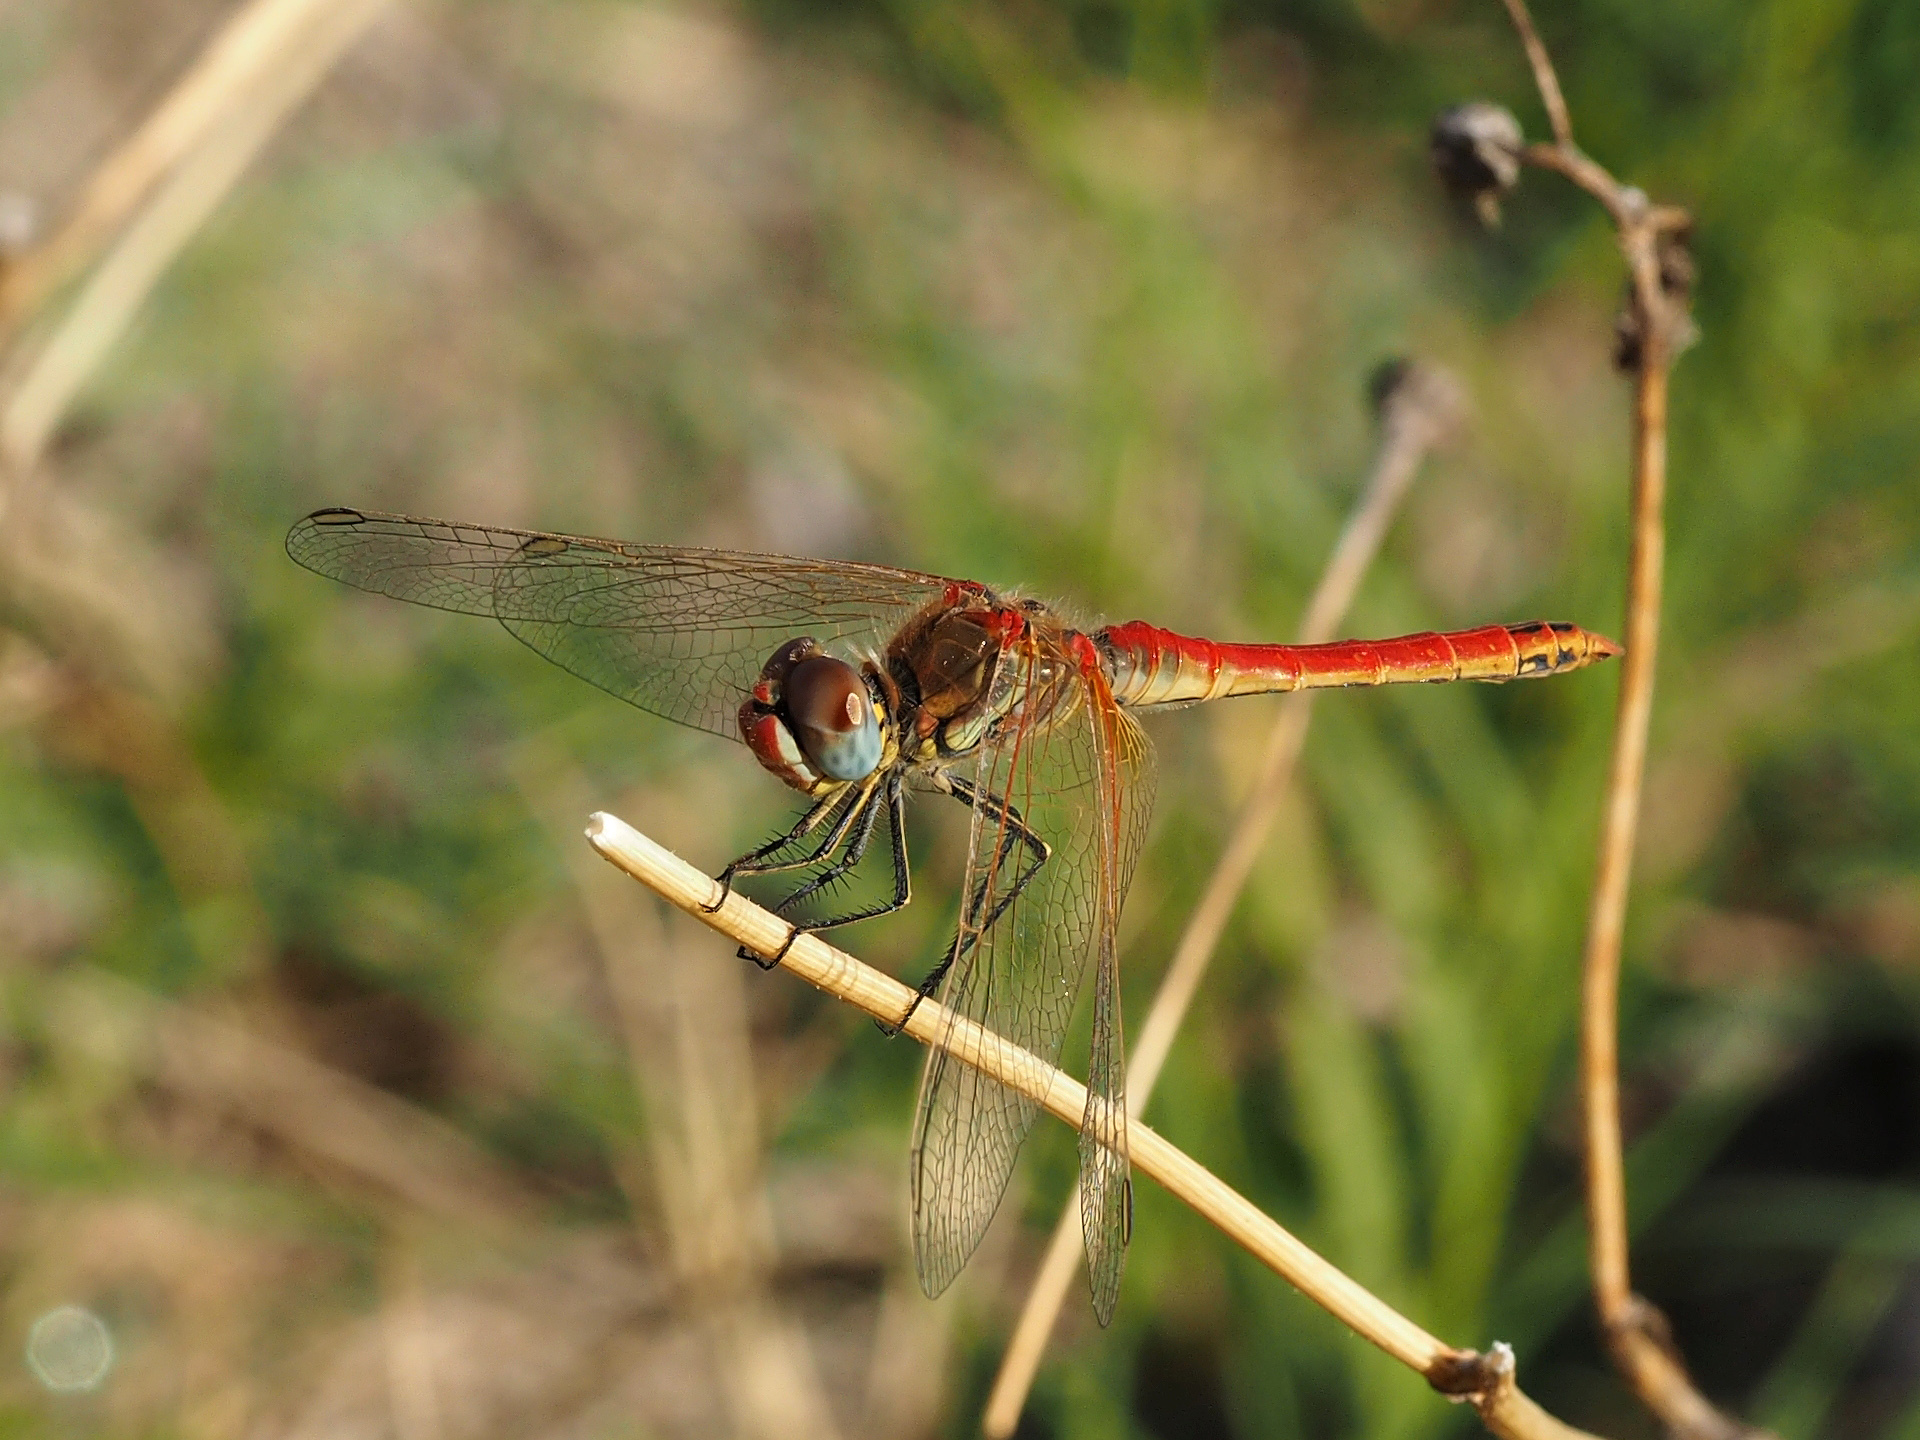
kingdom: Animalia
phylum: Arthropoda
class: Insecta
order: Odonata
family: Libellulidae
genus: Sympetrum
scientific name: Sympetrum fonscolombii
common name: Red-veined darter
